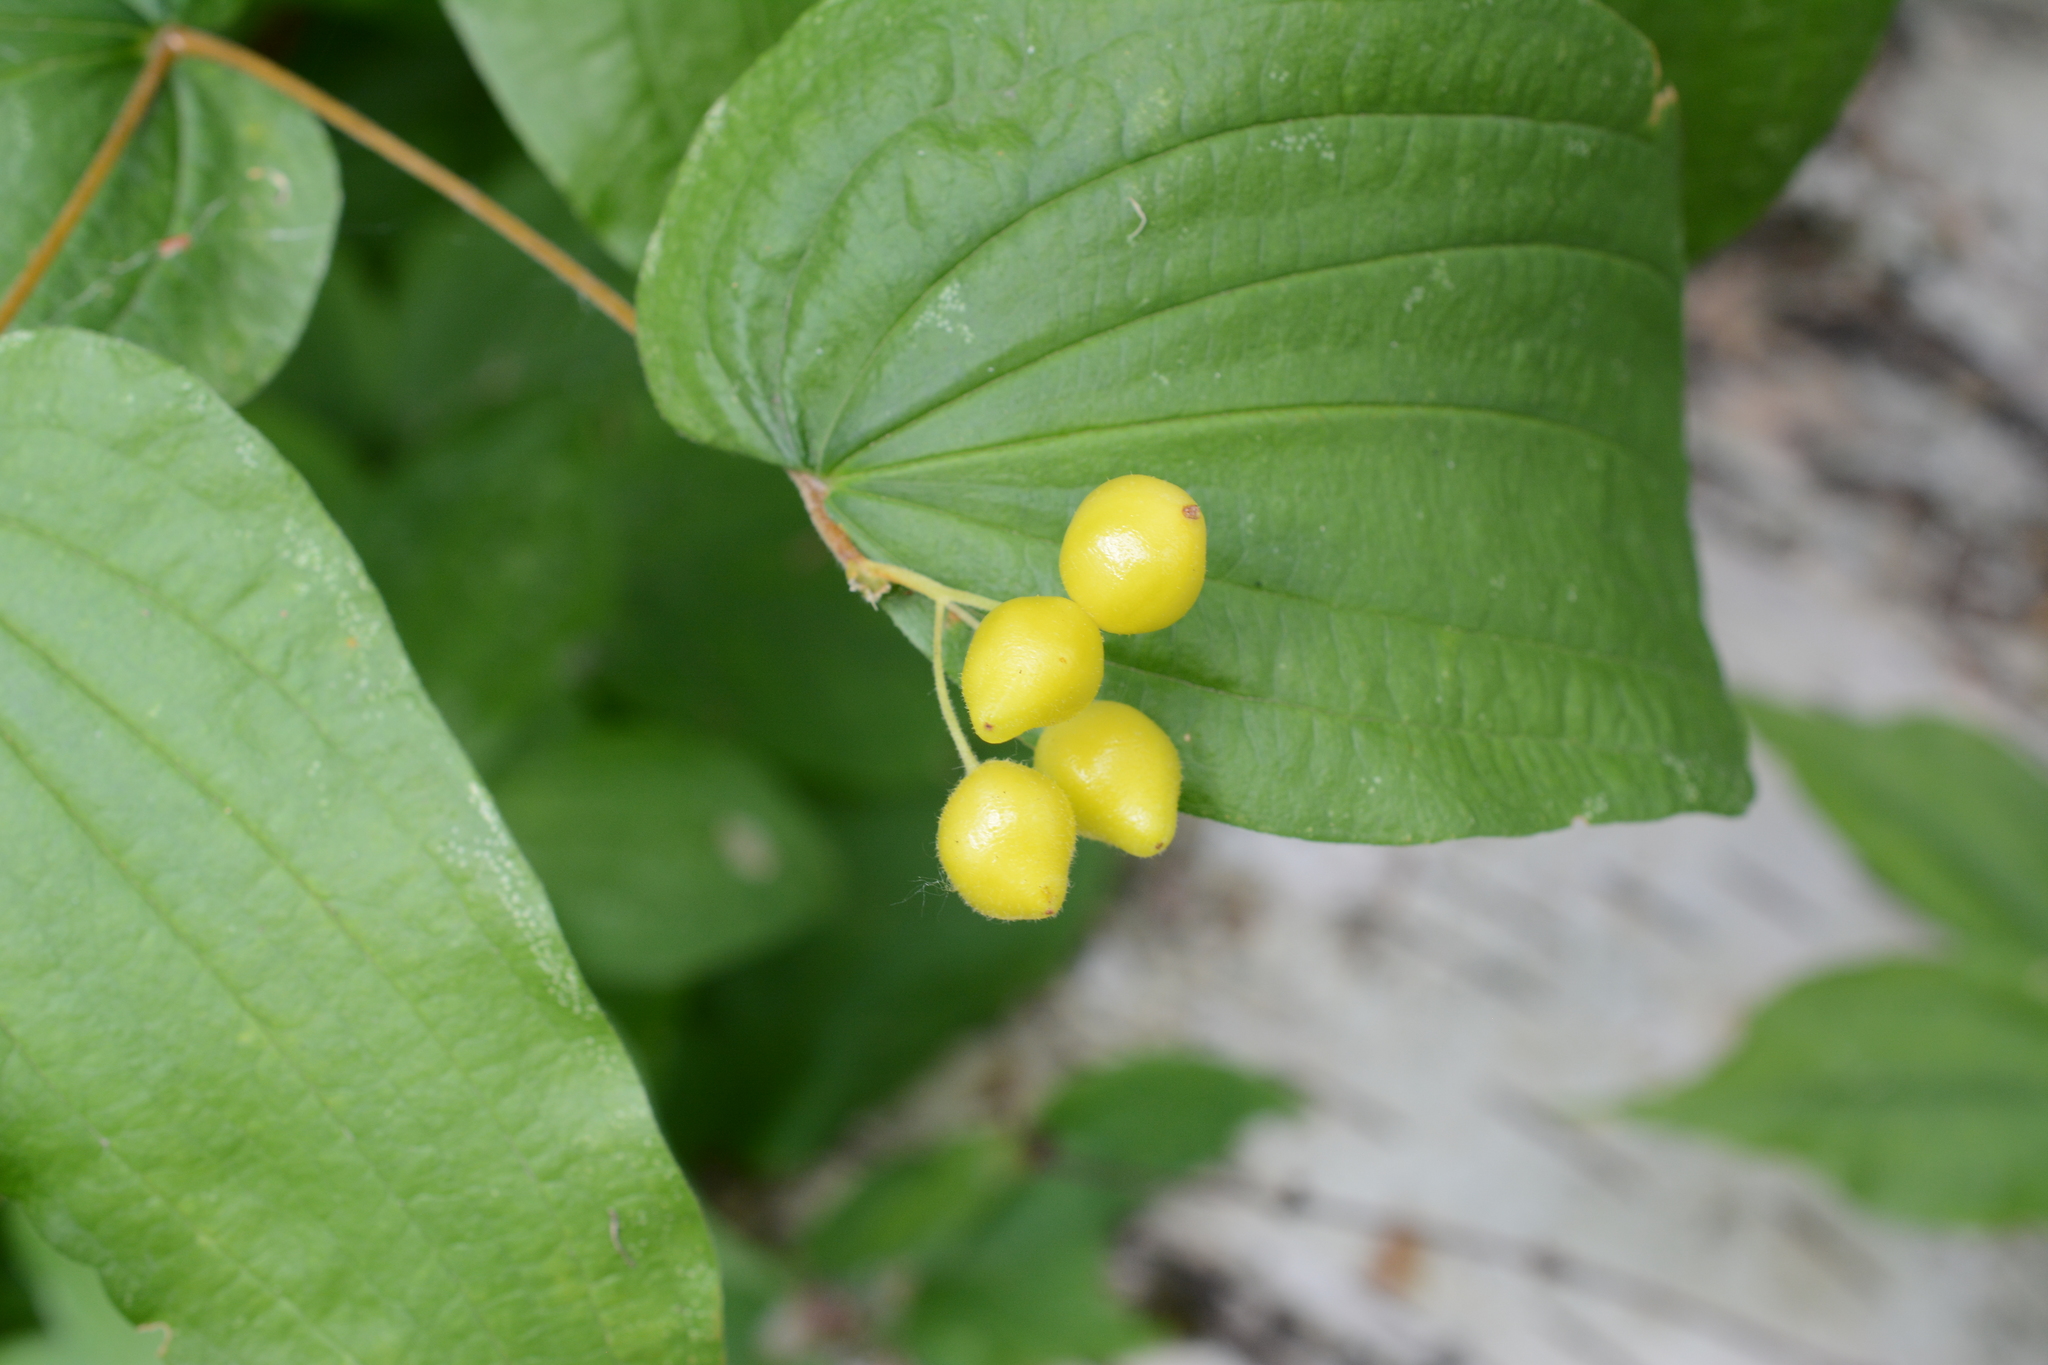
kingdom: Plantae
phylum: Tracheophyta
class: Liliopsida
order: Liliales
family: Liliaceae
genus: Prosartes
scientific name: Prosartes hookeri
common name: Fairy-bells
